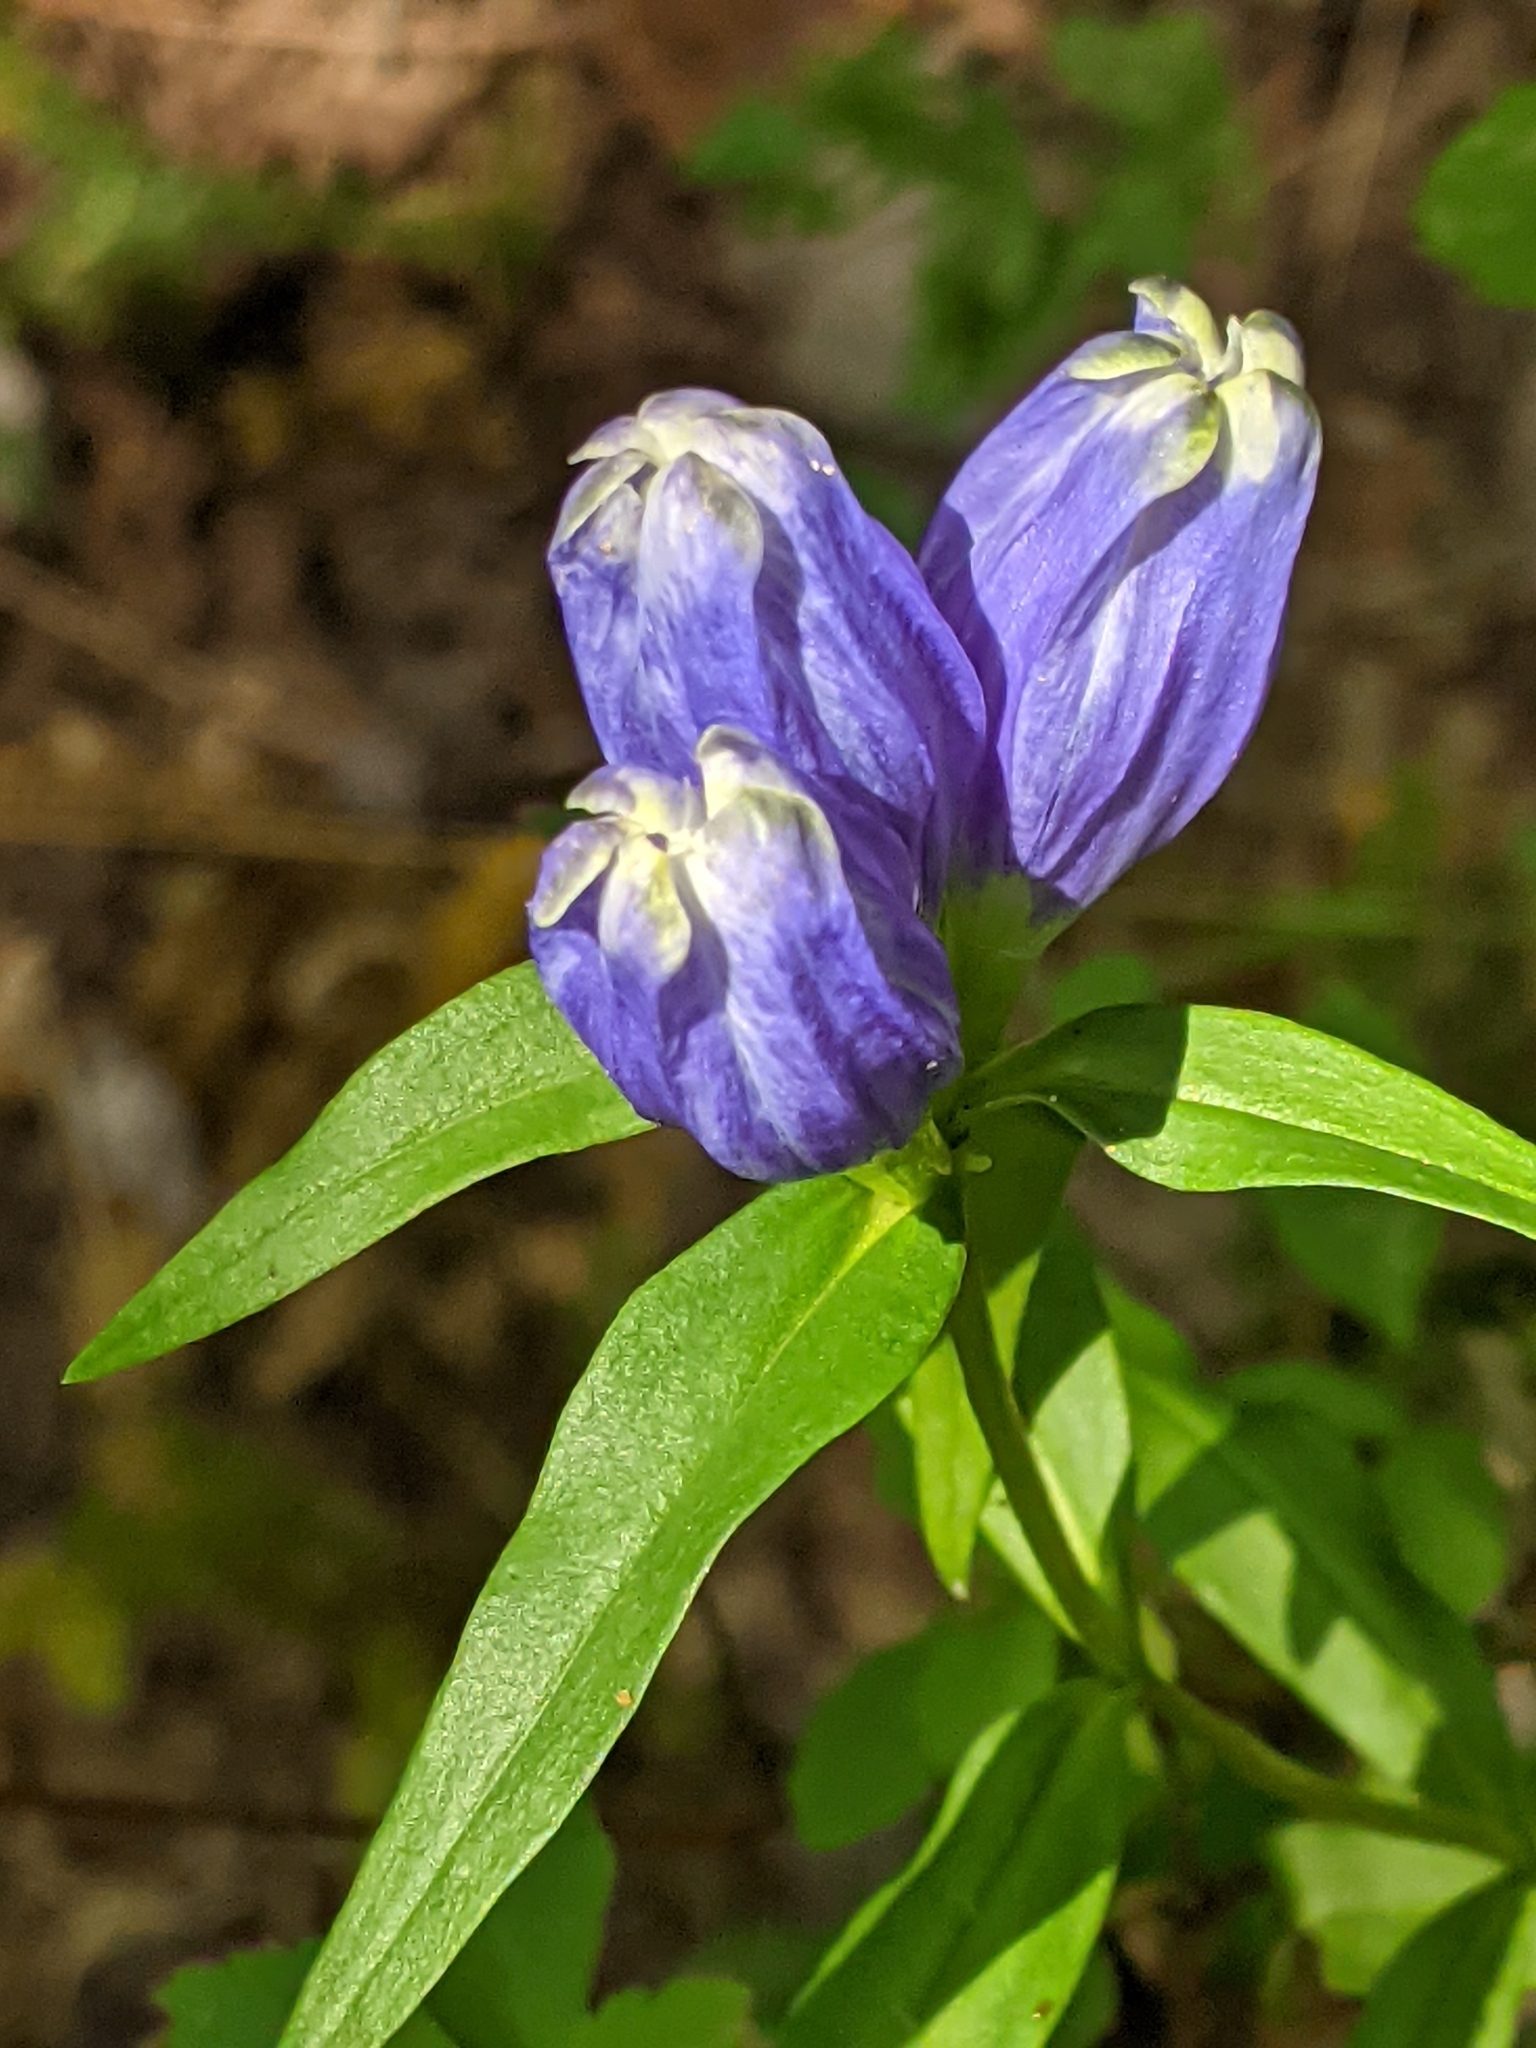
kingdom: Plantae
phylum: Tracheophyta
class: Magnoliopsida
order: Gentianales
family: Gentianaceae
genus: Gentiana
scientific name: Gentiana linearis
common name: Bastard gentian
